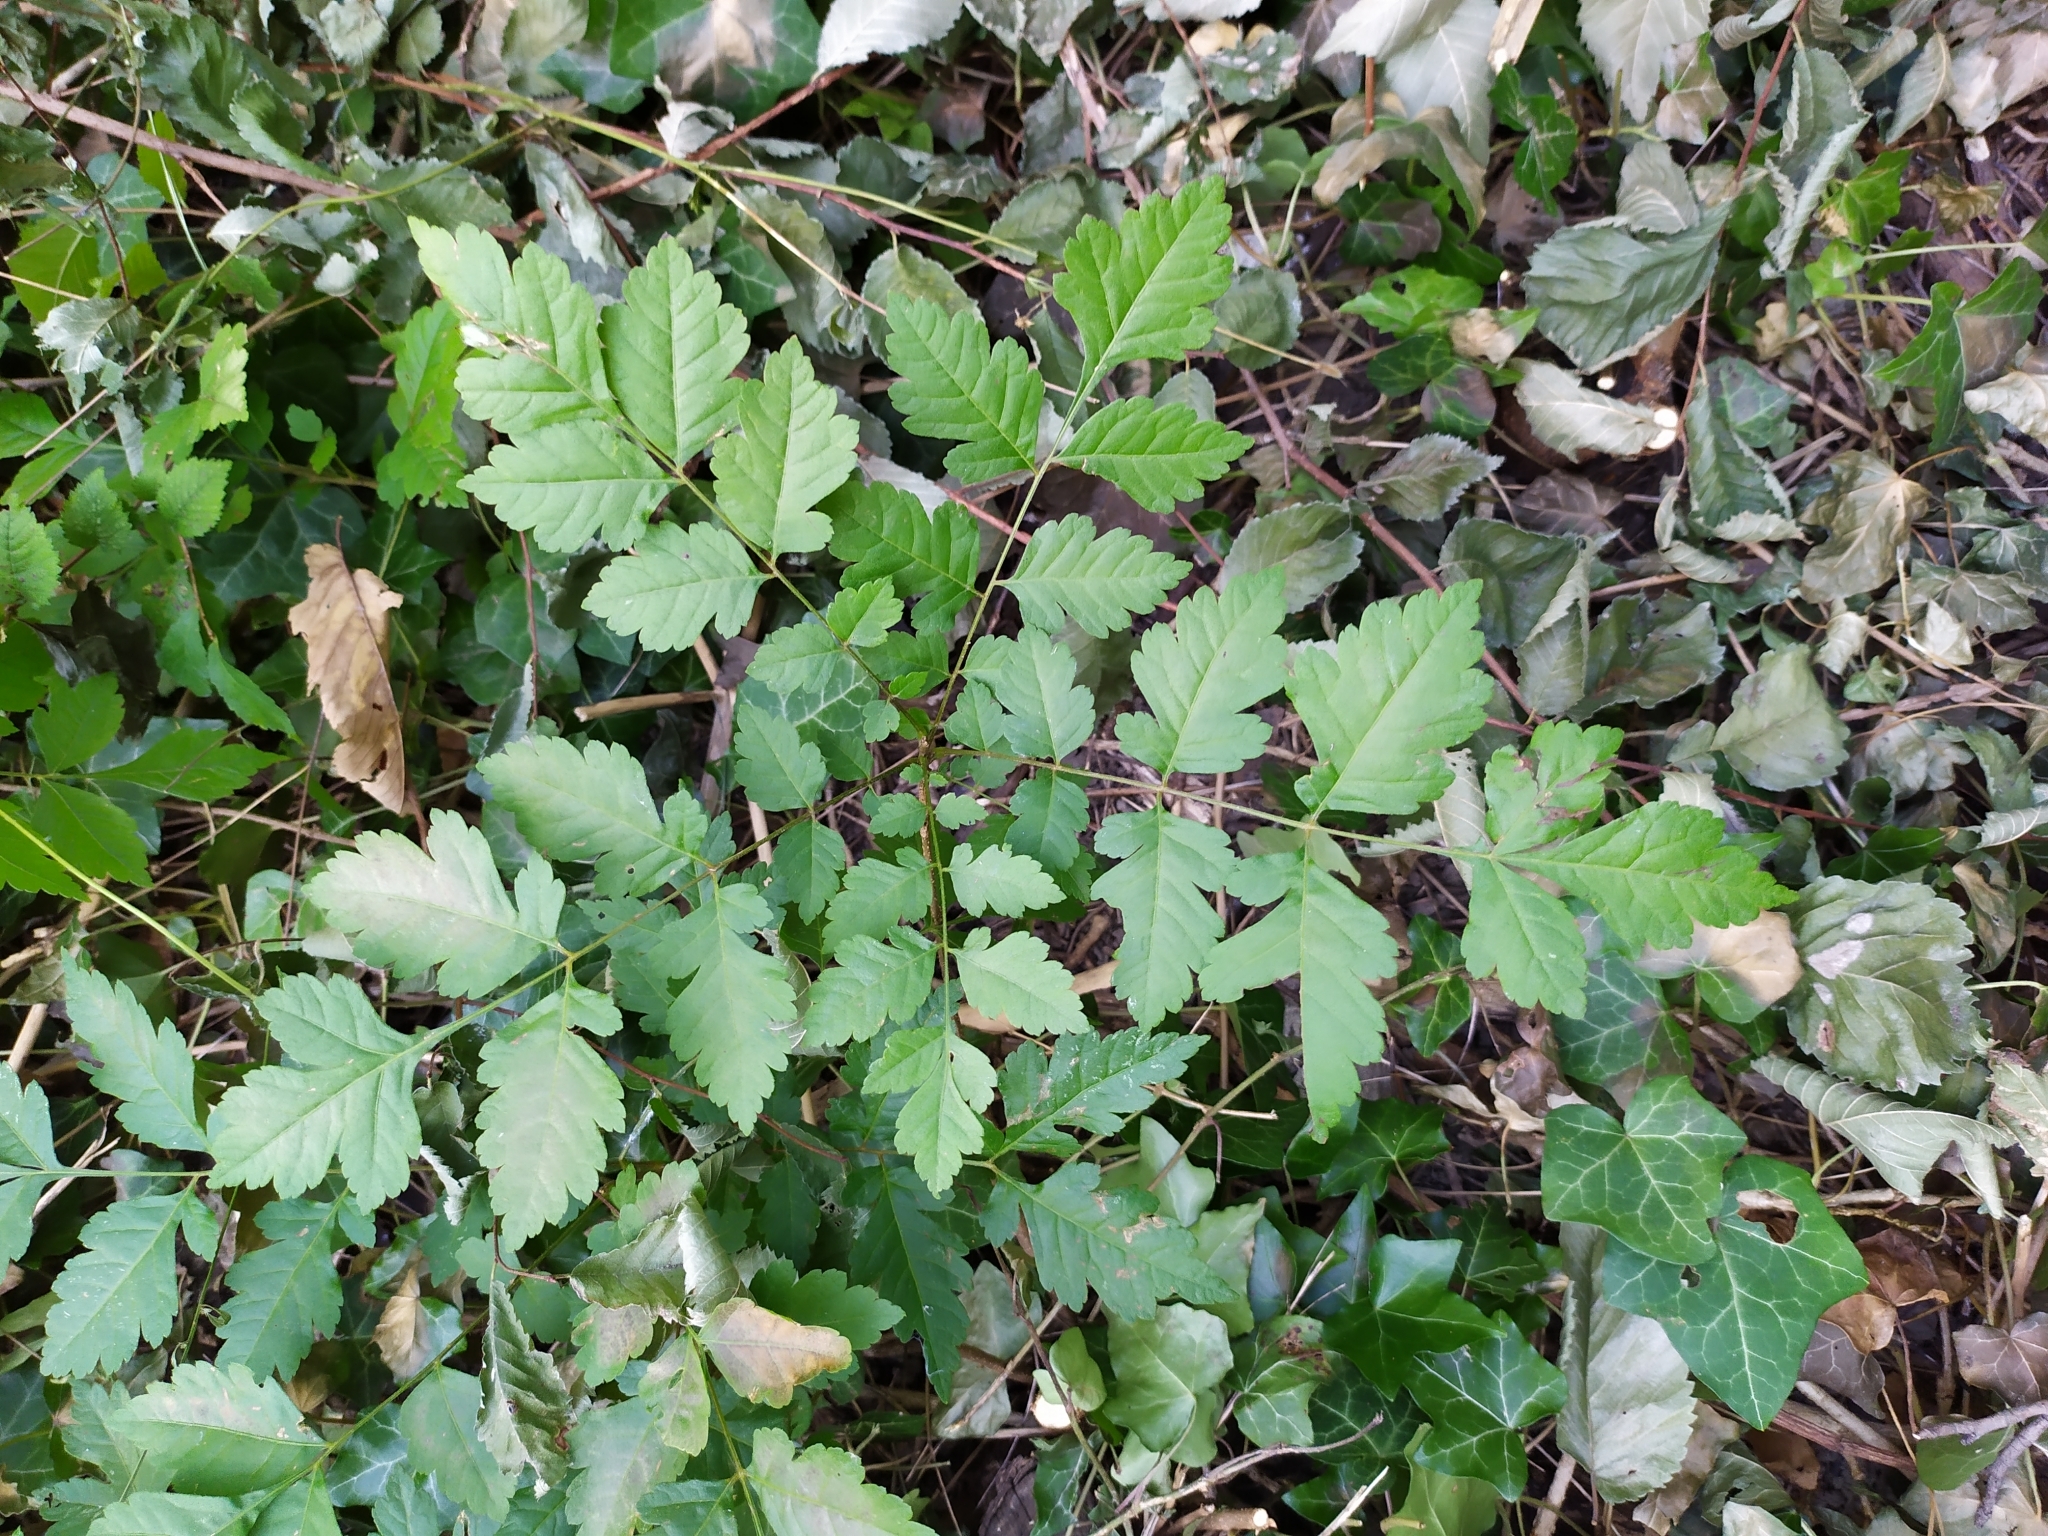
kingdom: Plantae
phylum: Tracheophyta
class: Magnoliopsida
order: Sapindales
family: Sapindaceae
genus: Koelreuteria
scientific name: Koelreuteria paniculata
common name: Pride-of-india
